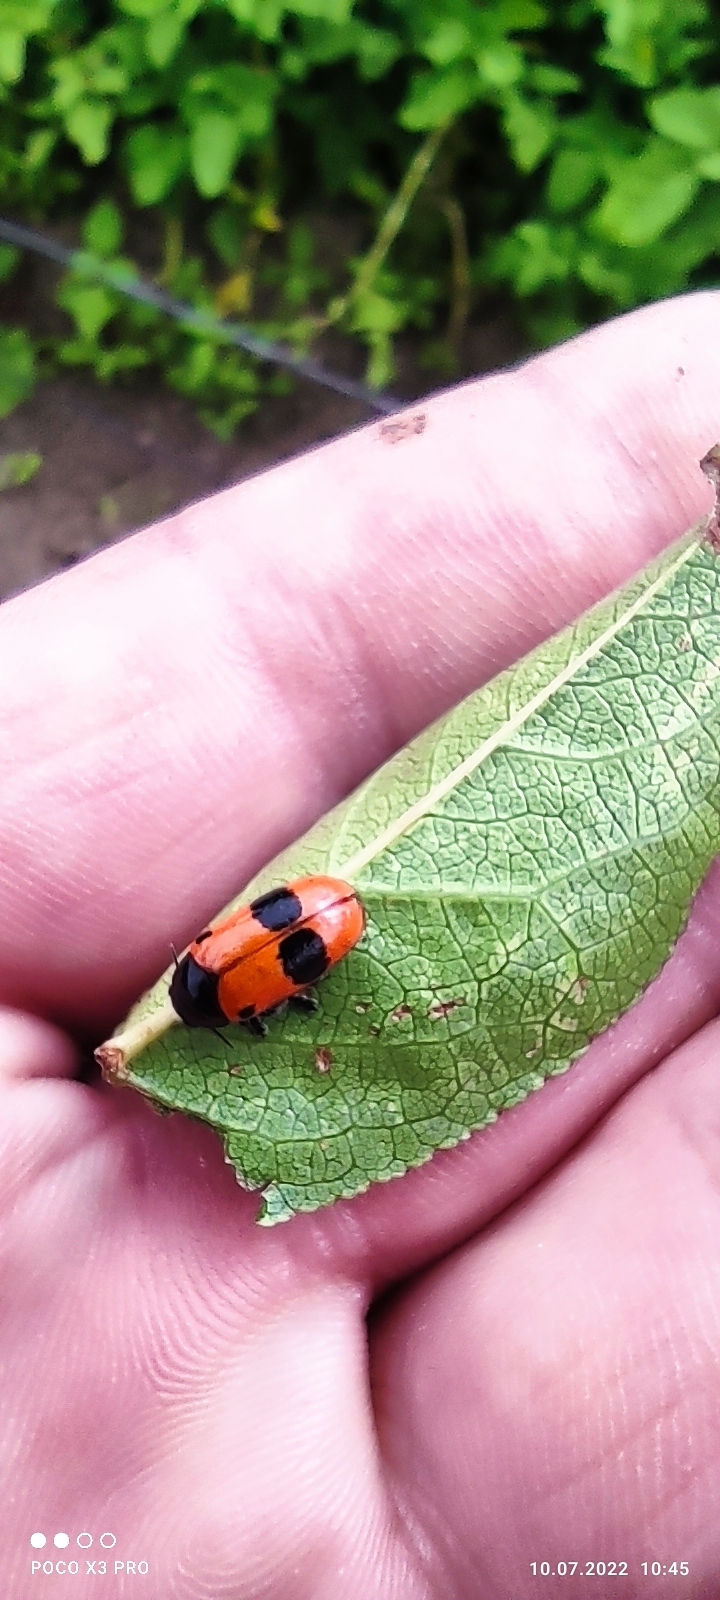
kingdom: Animalia
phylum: Arthropoda
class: Insecta
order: Coleoptera
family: Chrysomelidae
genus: Clytra
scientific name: Clytra laeviuscula
